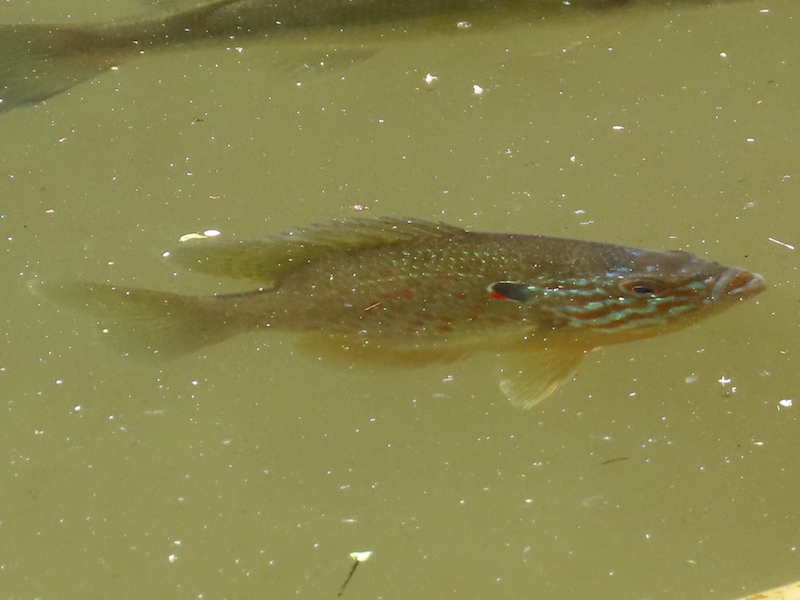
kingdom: Animalia
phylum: Chordata
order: Perciformes
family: Centrarchidae
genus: Lepomis
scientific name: Lepomis gibbosus
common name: Pumpkinseed
